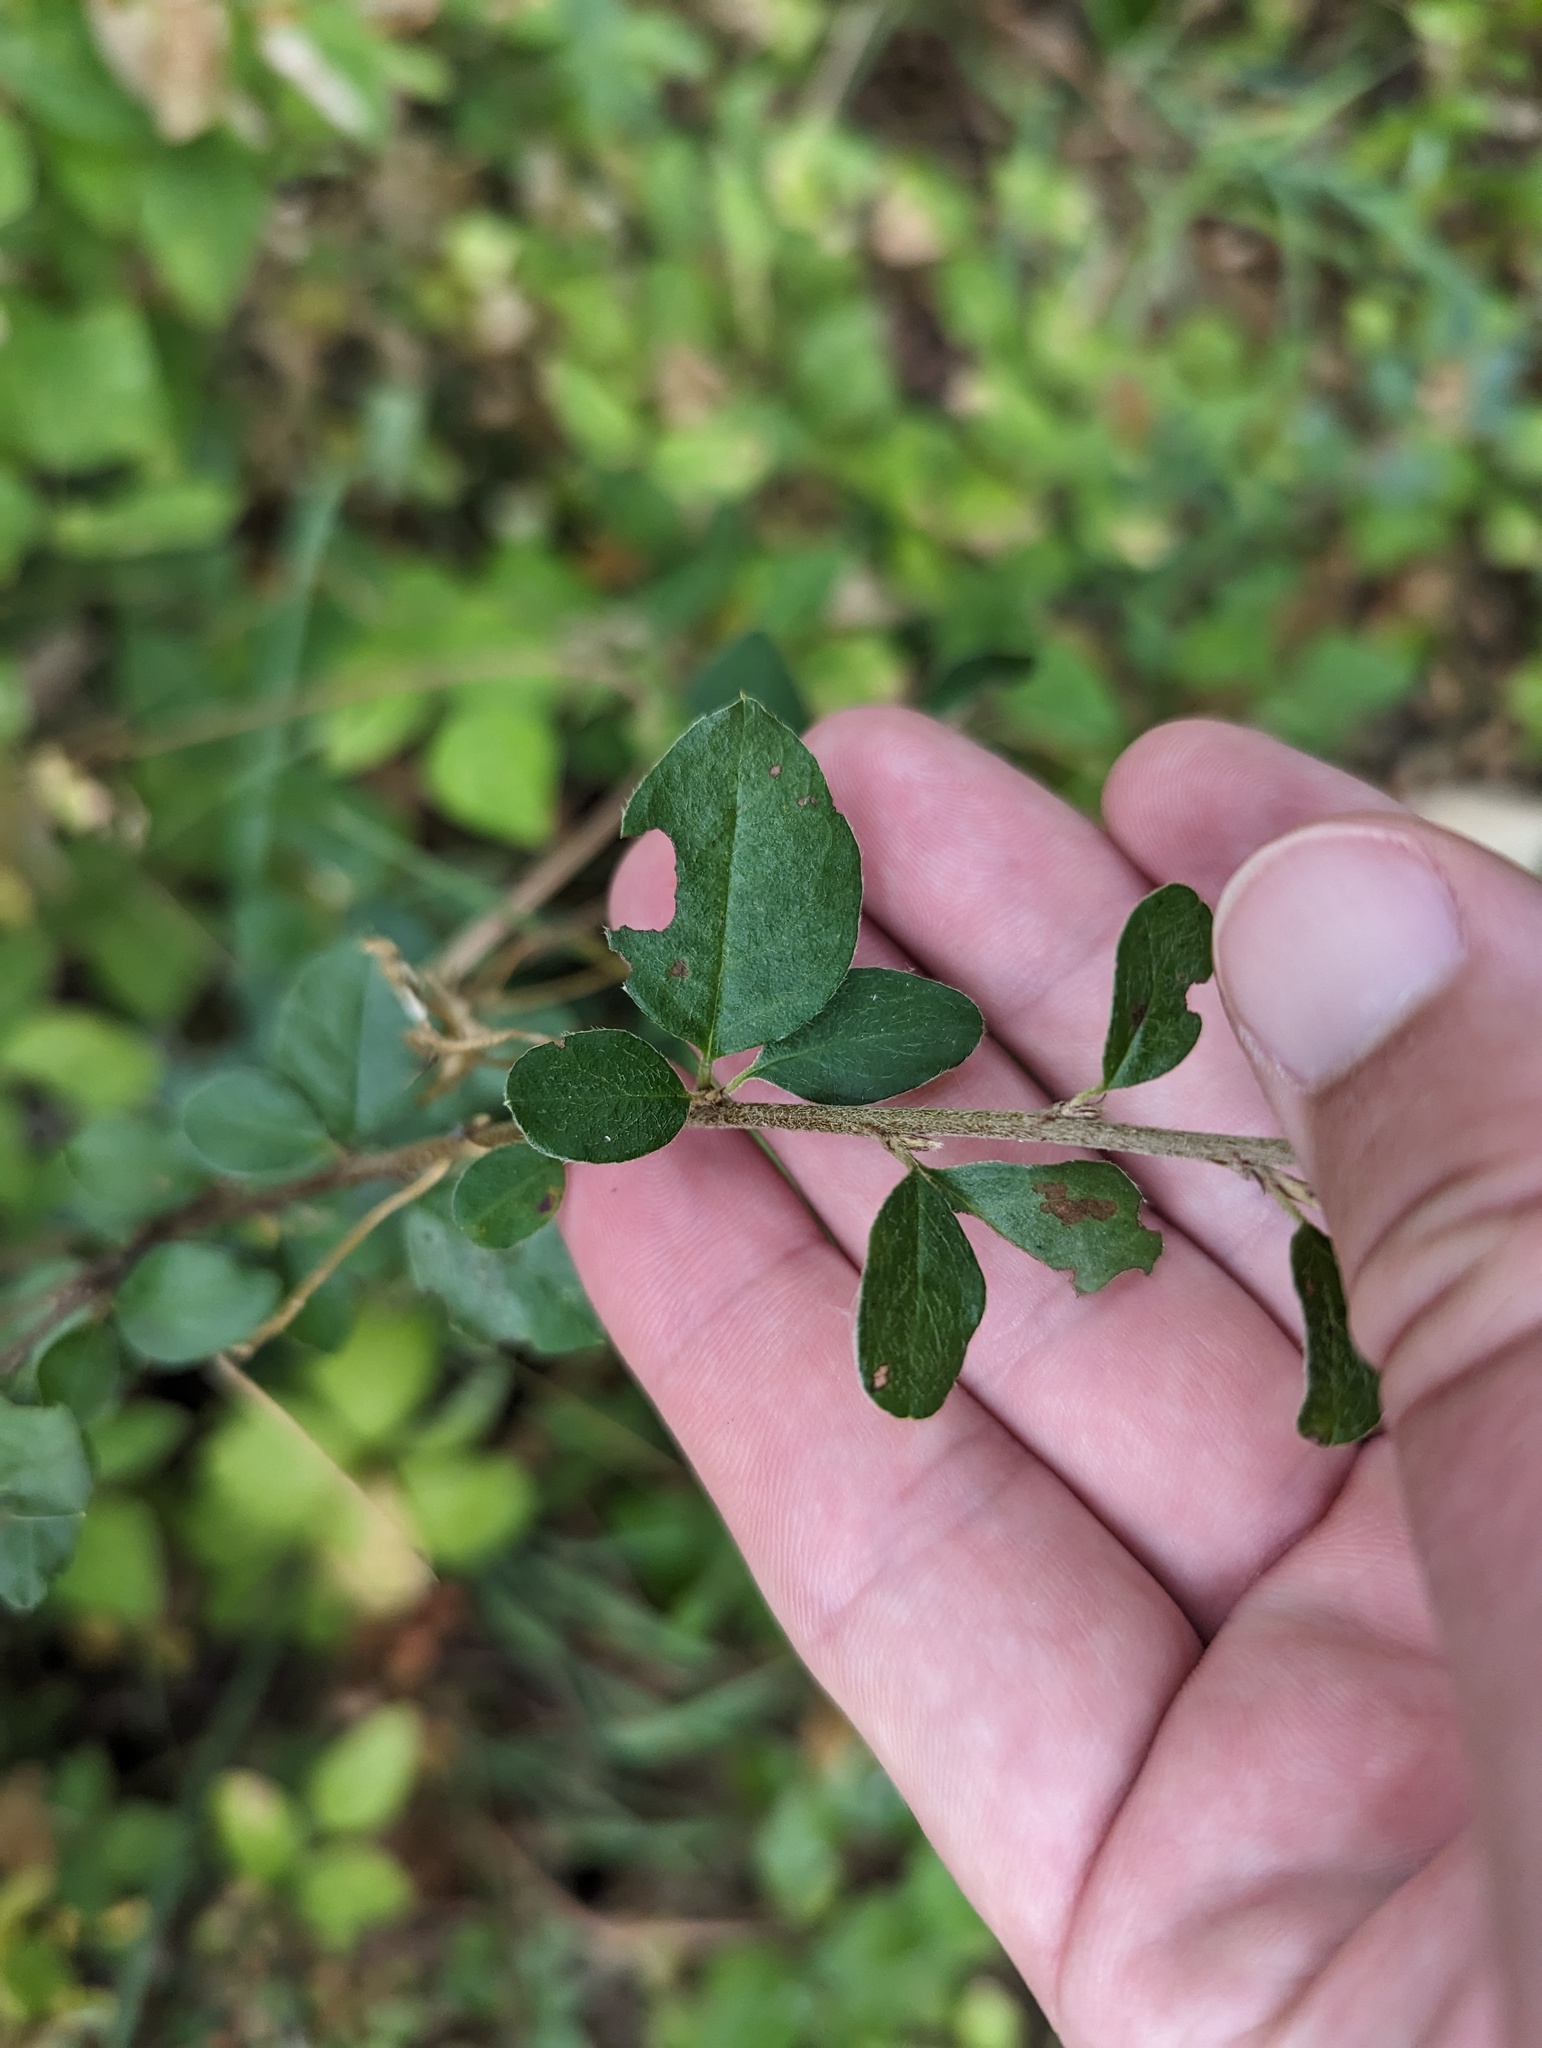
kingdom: Plantae
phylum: Tracheophyta
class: Magnoliopsida
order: Rosales
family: Rosaceae
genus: Cotoneaster
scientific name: Cotoneaster divaricatus
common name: Spreading cotoneaster
